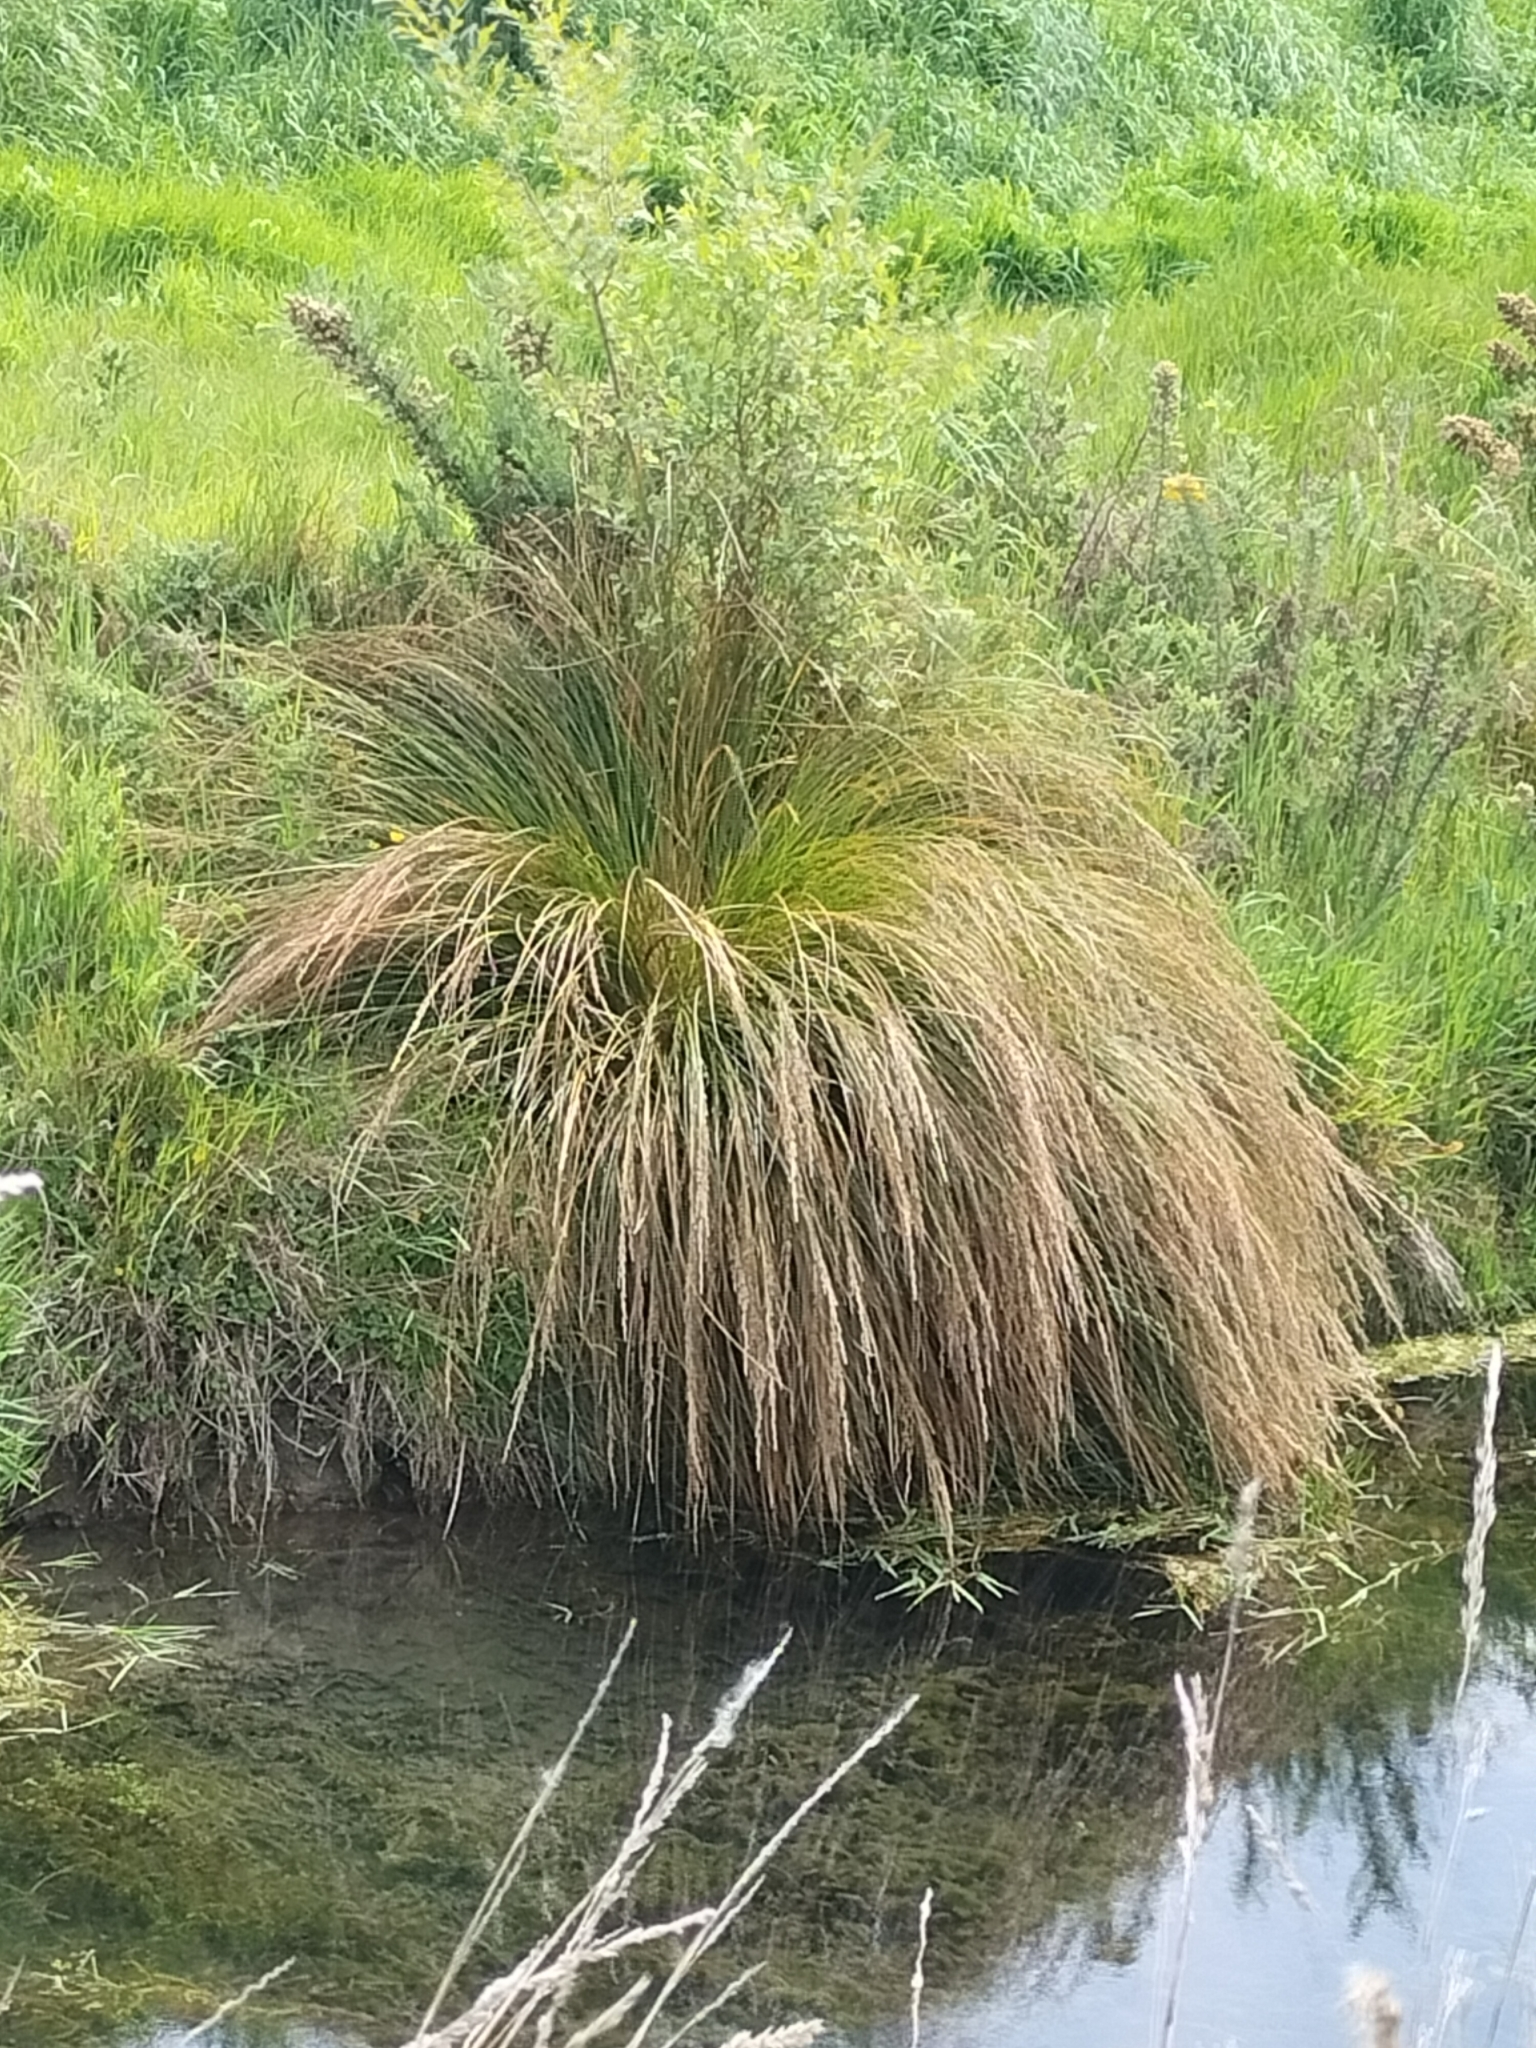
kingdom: Plantae
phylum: Tracheophyta
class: Liliopsida
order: Poales
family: Cyperaceae
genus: Carex
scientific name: Carex secta
